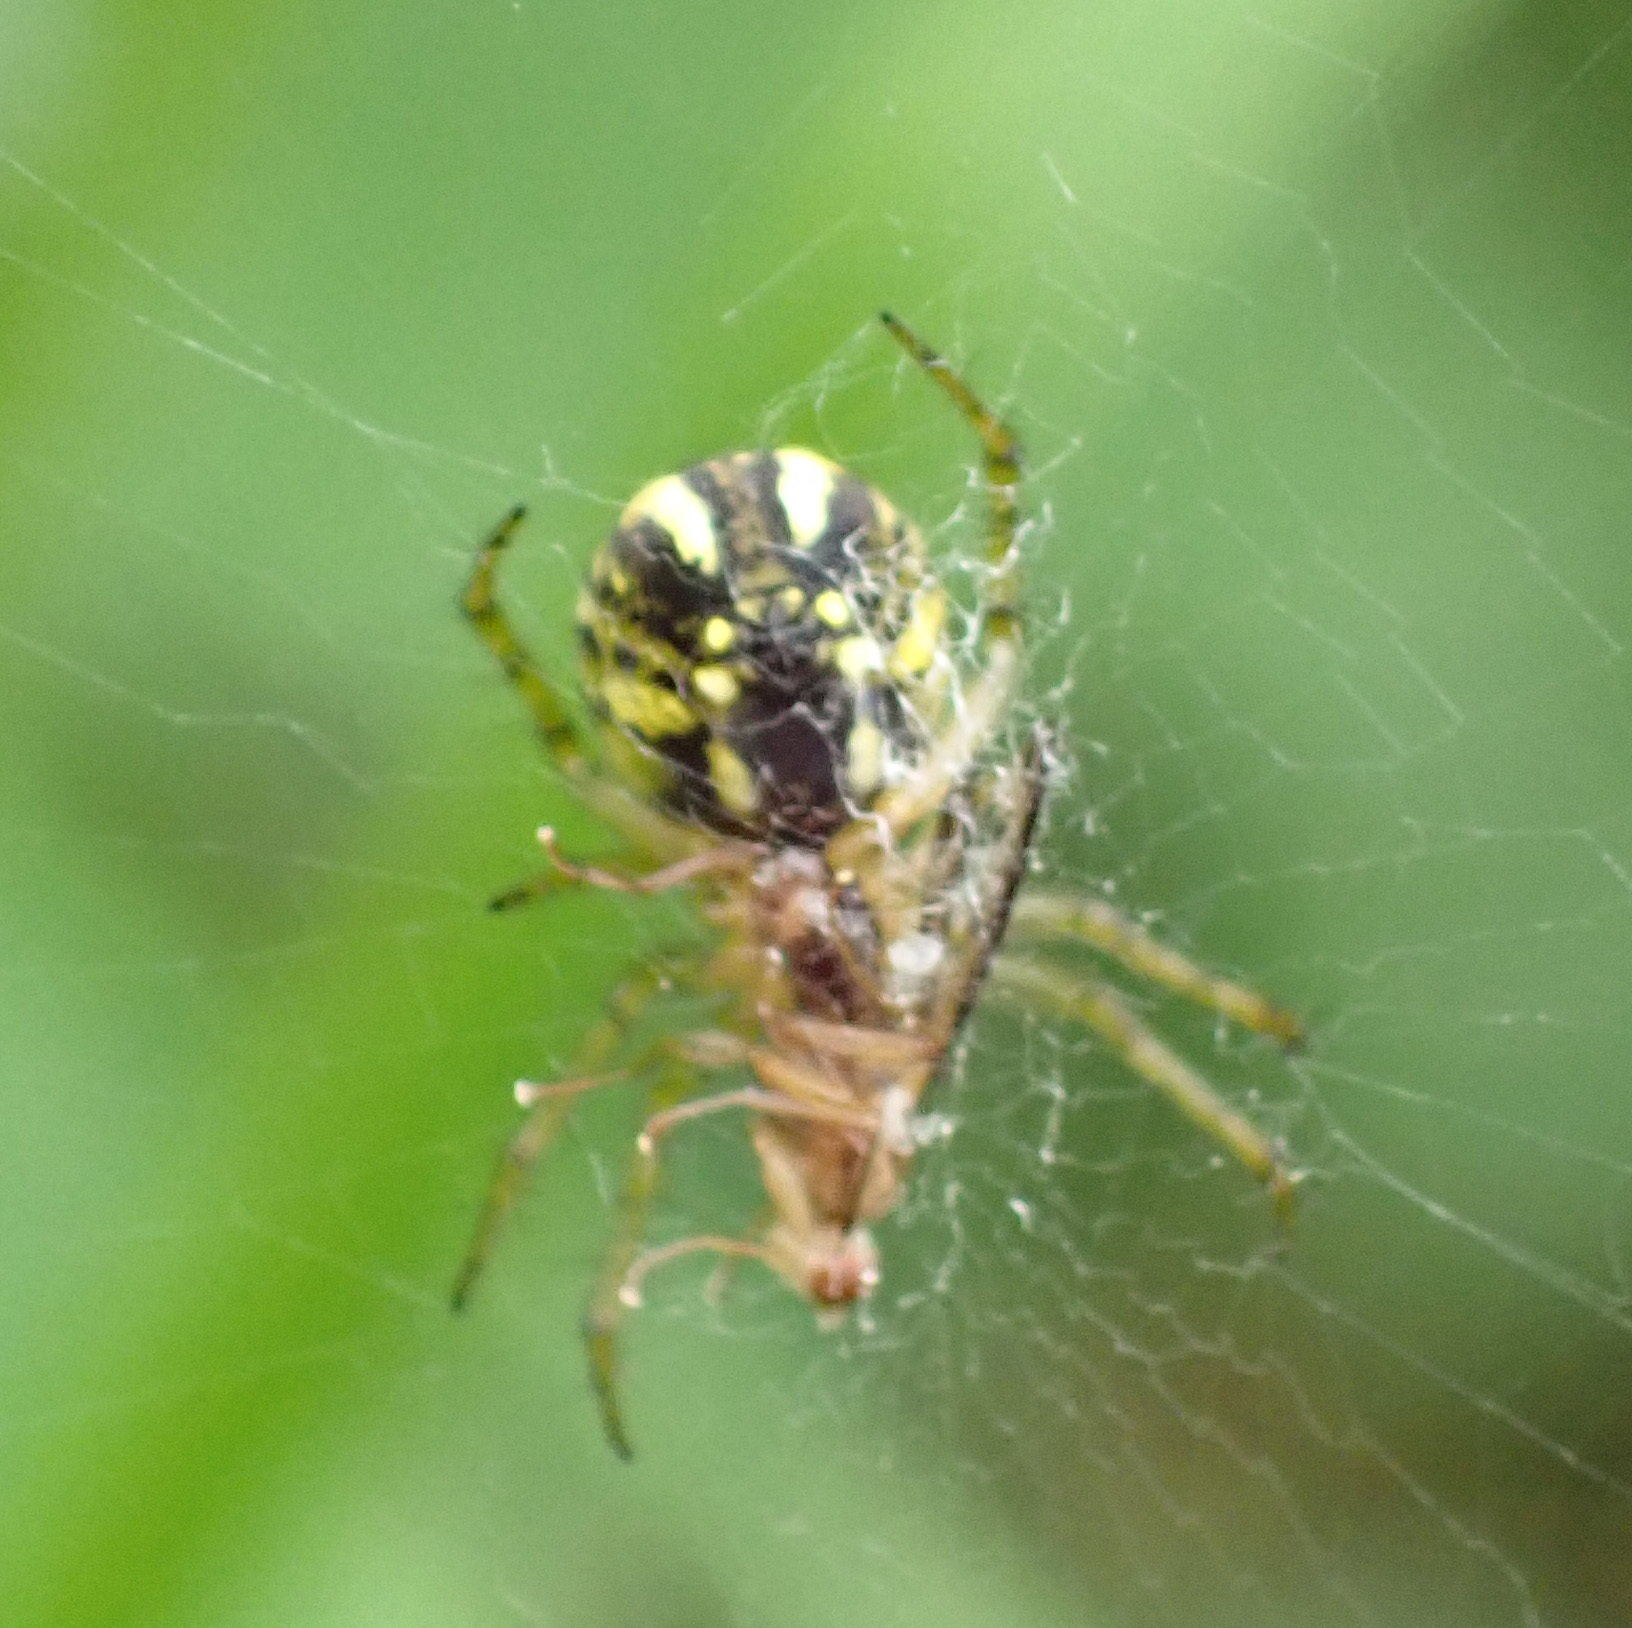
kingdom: Animalia
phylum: Arthropoda
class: Arachnida
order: Araneae
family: Araneidae
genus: Mangora
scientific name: Mangora acalypha
